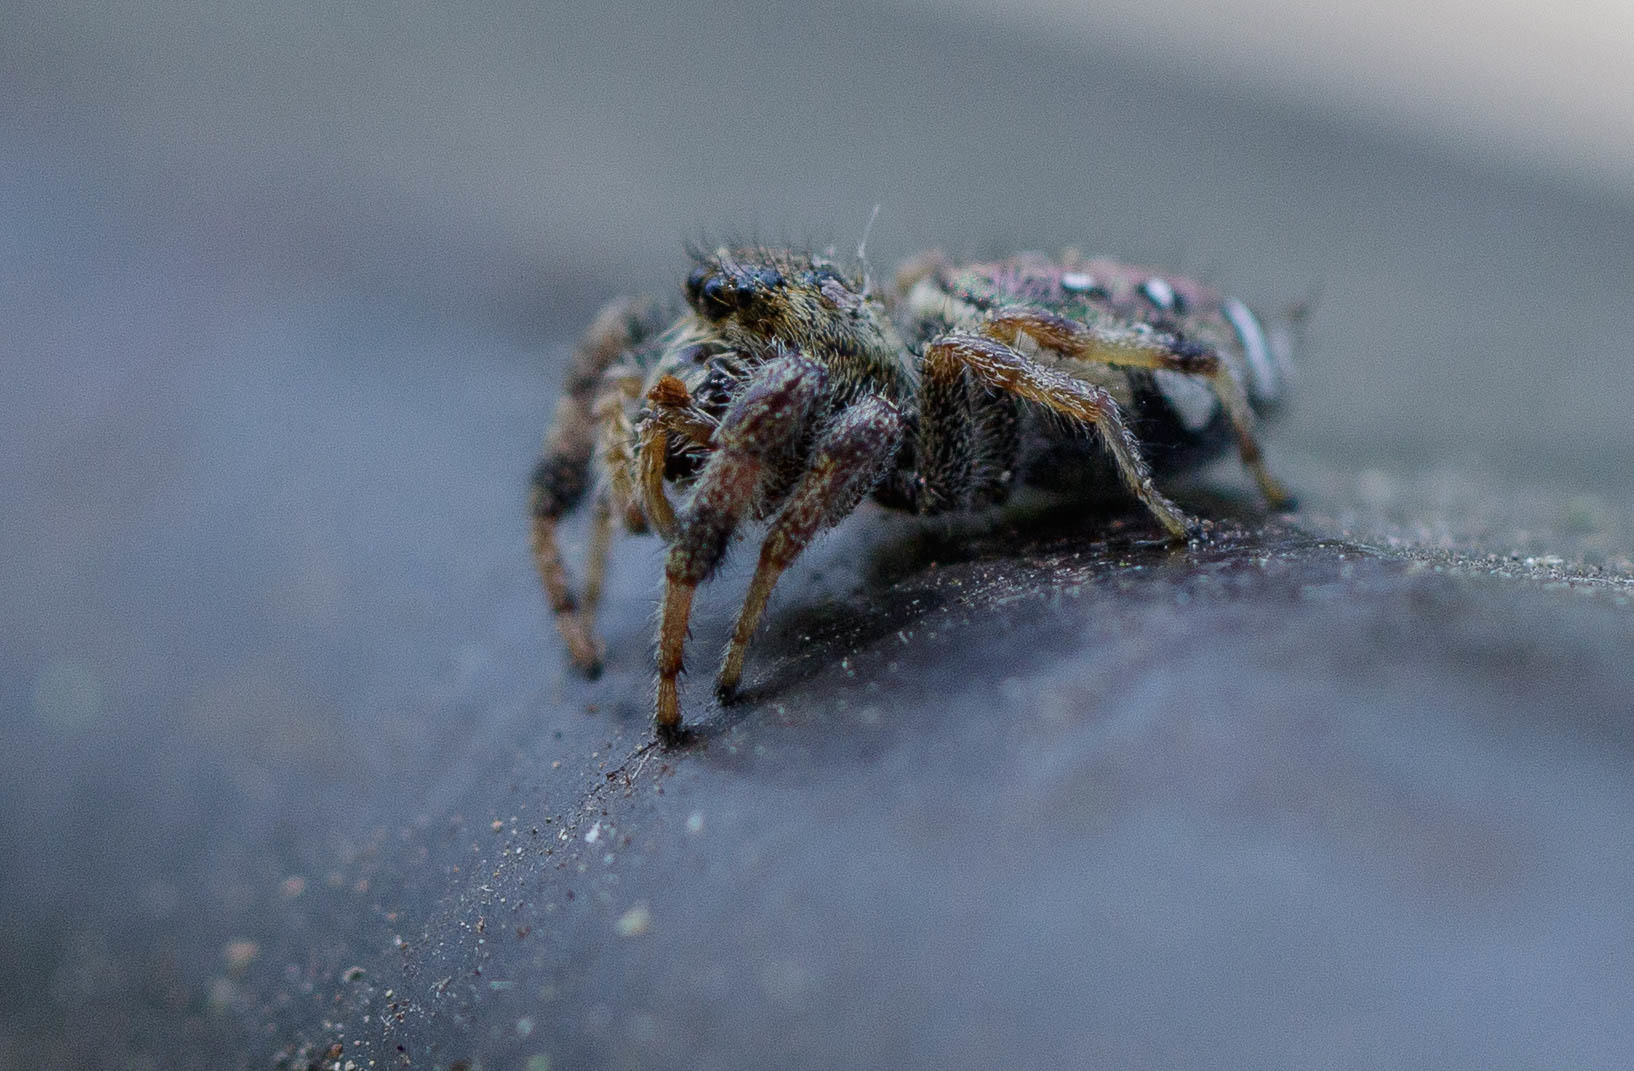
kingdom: Animalia
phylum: Arthropoda
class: Arachnida
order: Araneae
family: Salticidae
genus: Paraphidippus
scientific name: Paraphidippus aurantius
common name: Jumping spiders
